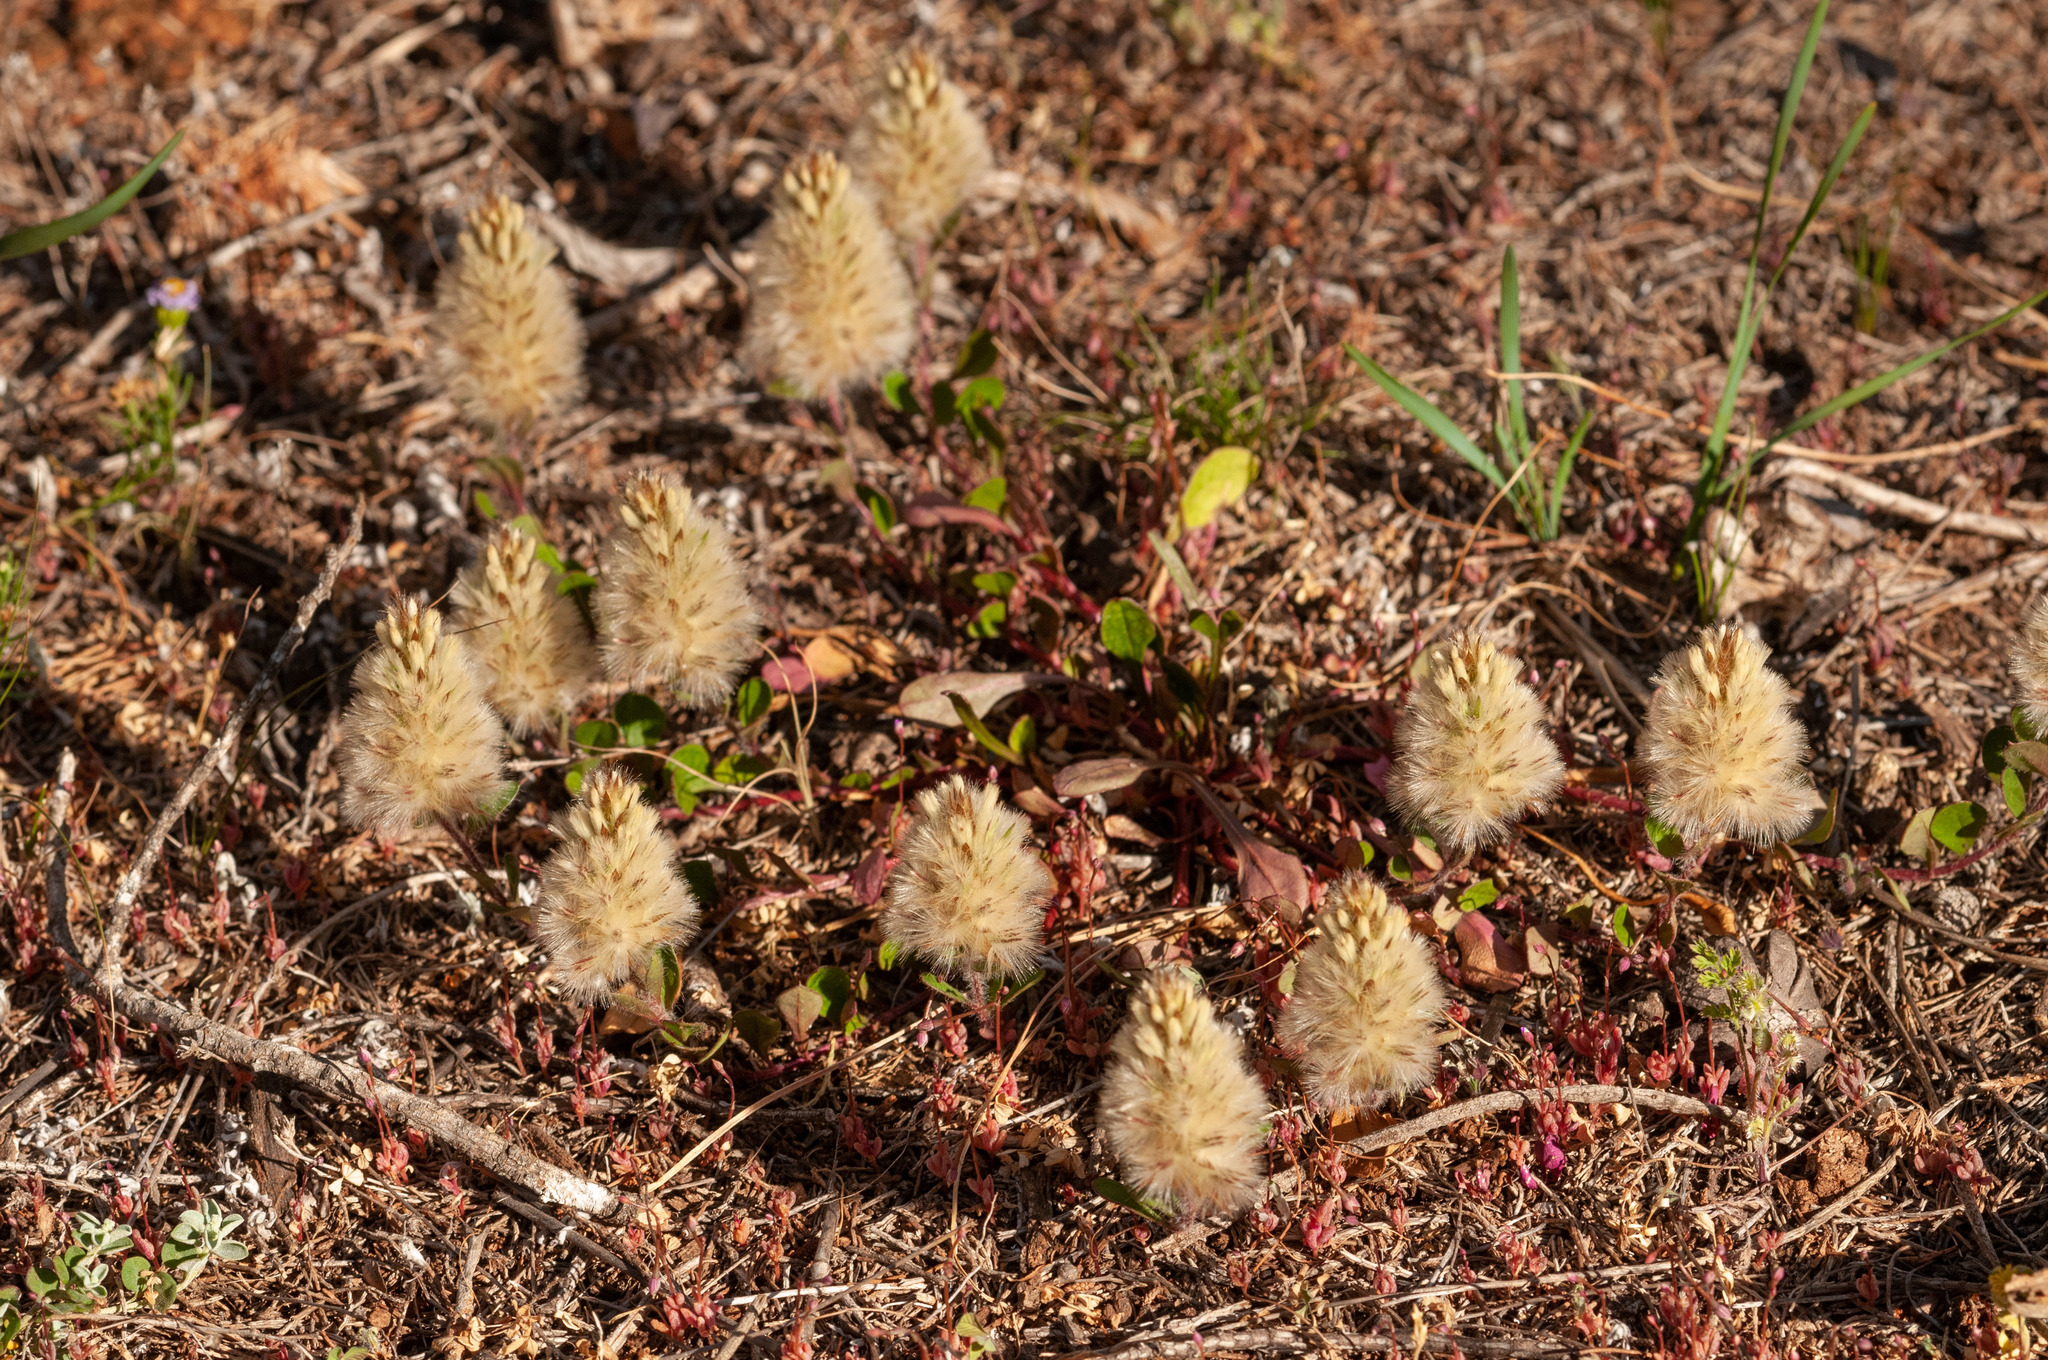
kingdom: Plantae
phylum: Tracheophyta
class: Magnoliopsida
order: Caryophyllales
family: Amaranthaceae
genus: Ptilotus
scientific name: Ptilotus spathulatus
